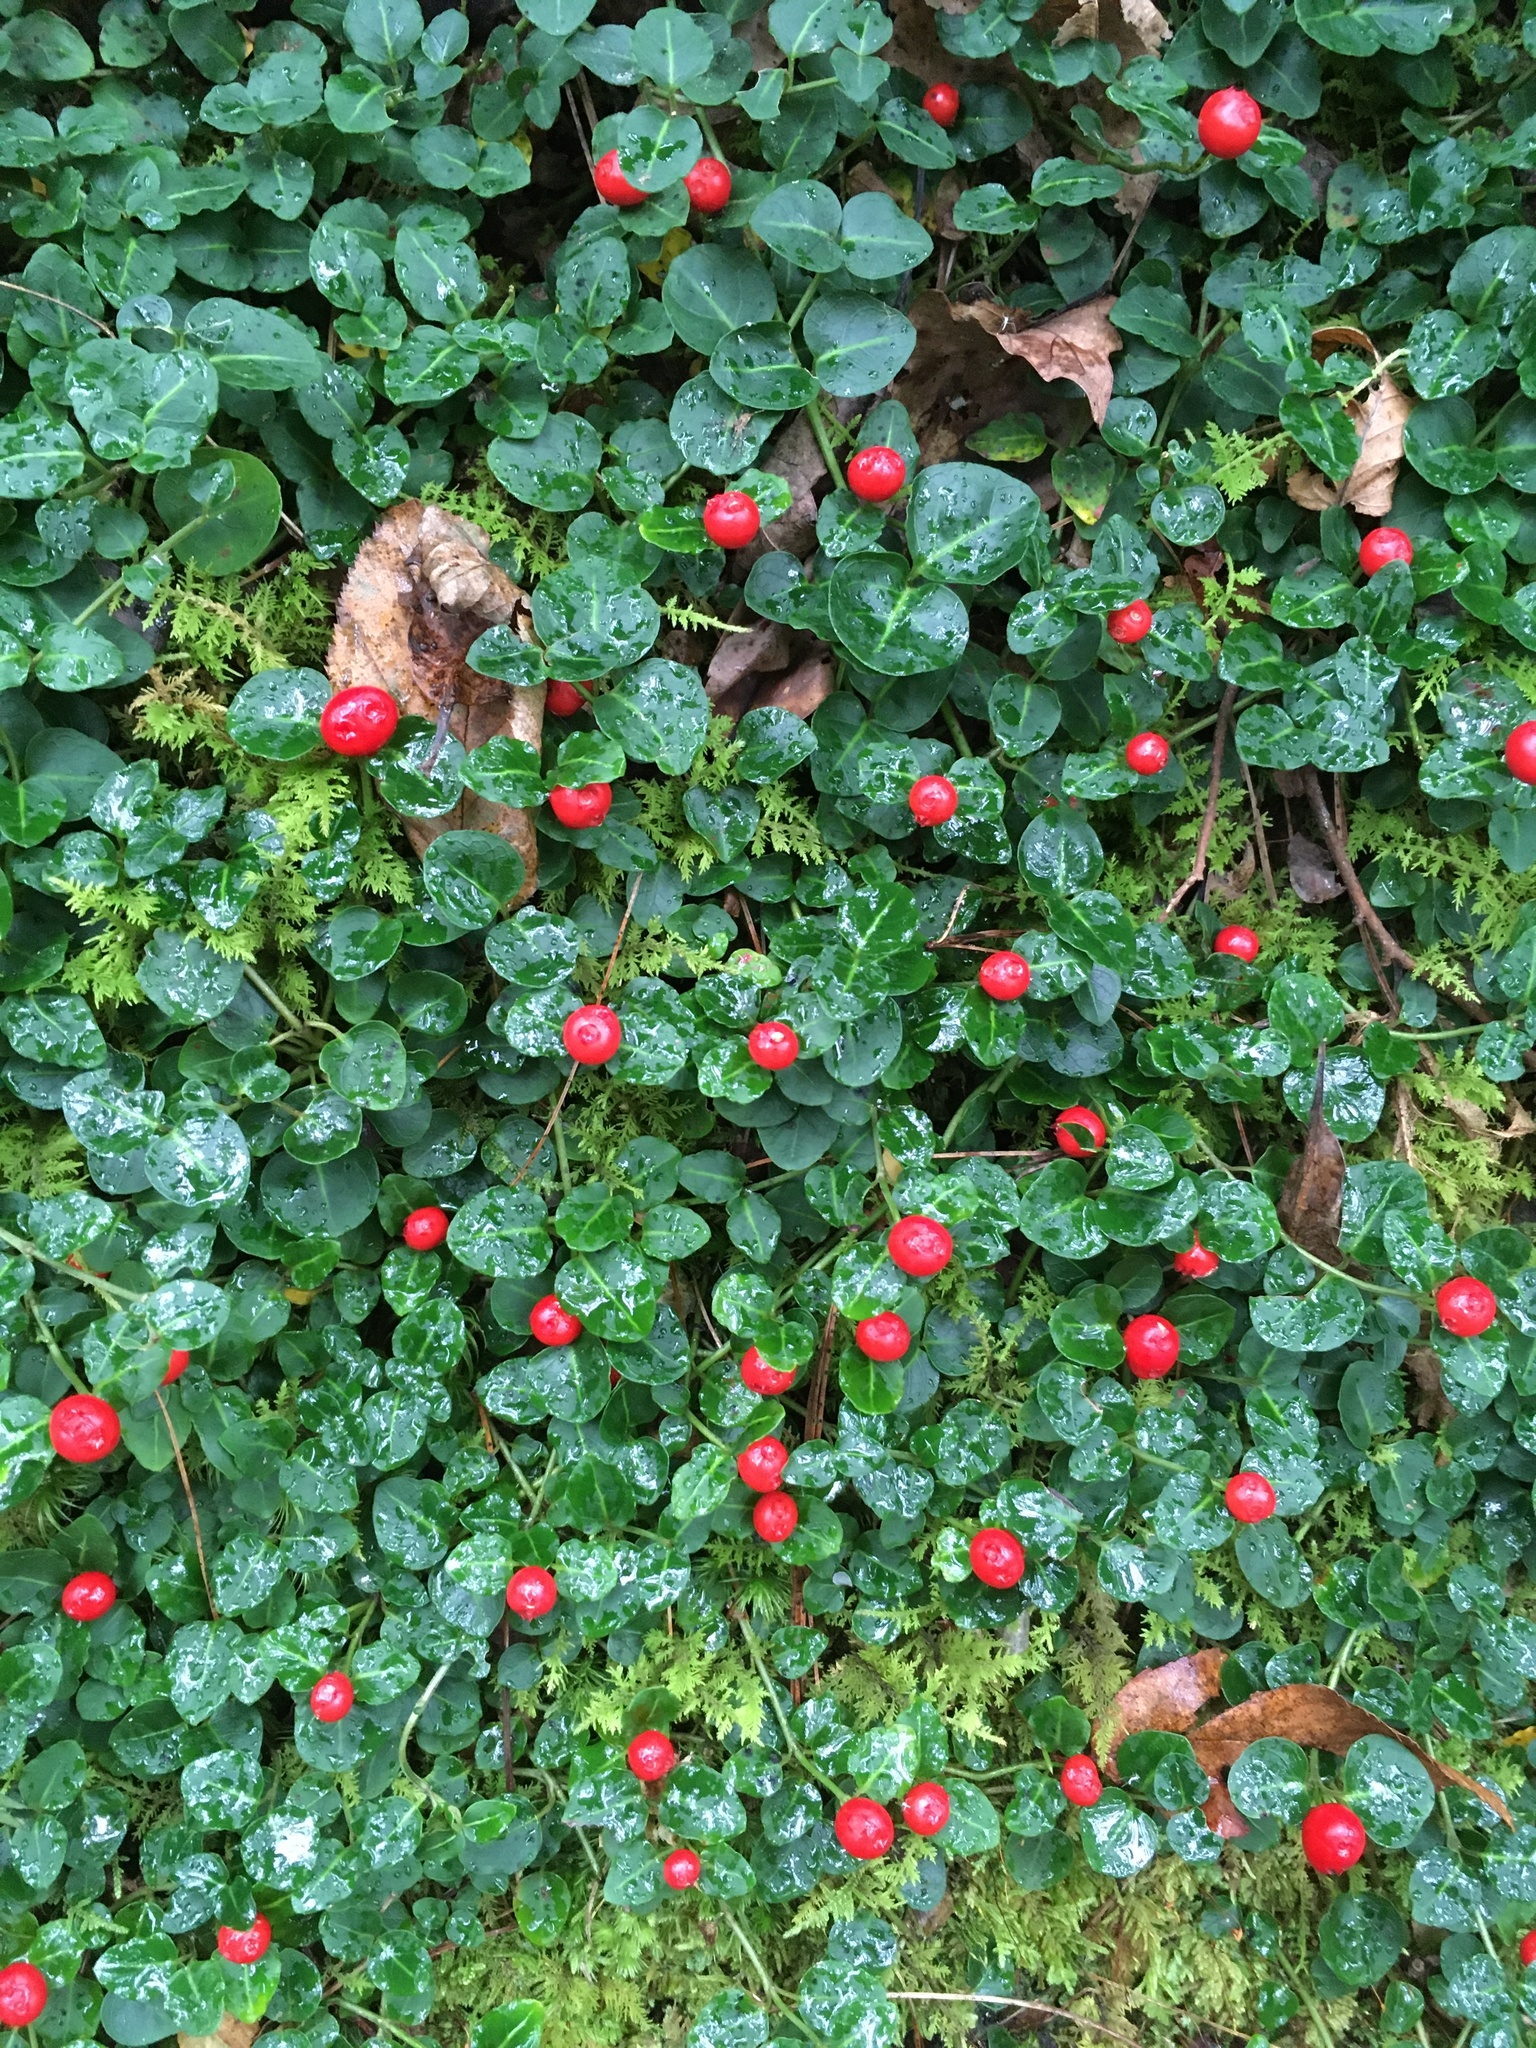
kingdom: Plantae
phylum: Tracheophyta
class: Magnoliopsida
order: Gentianales
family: Rubiaceae
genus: Mitchella
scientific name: Mitchella repens
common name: Partridge-berry
